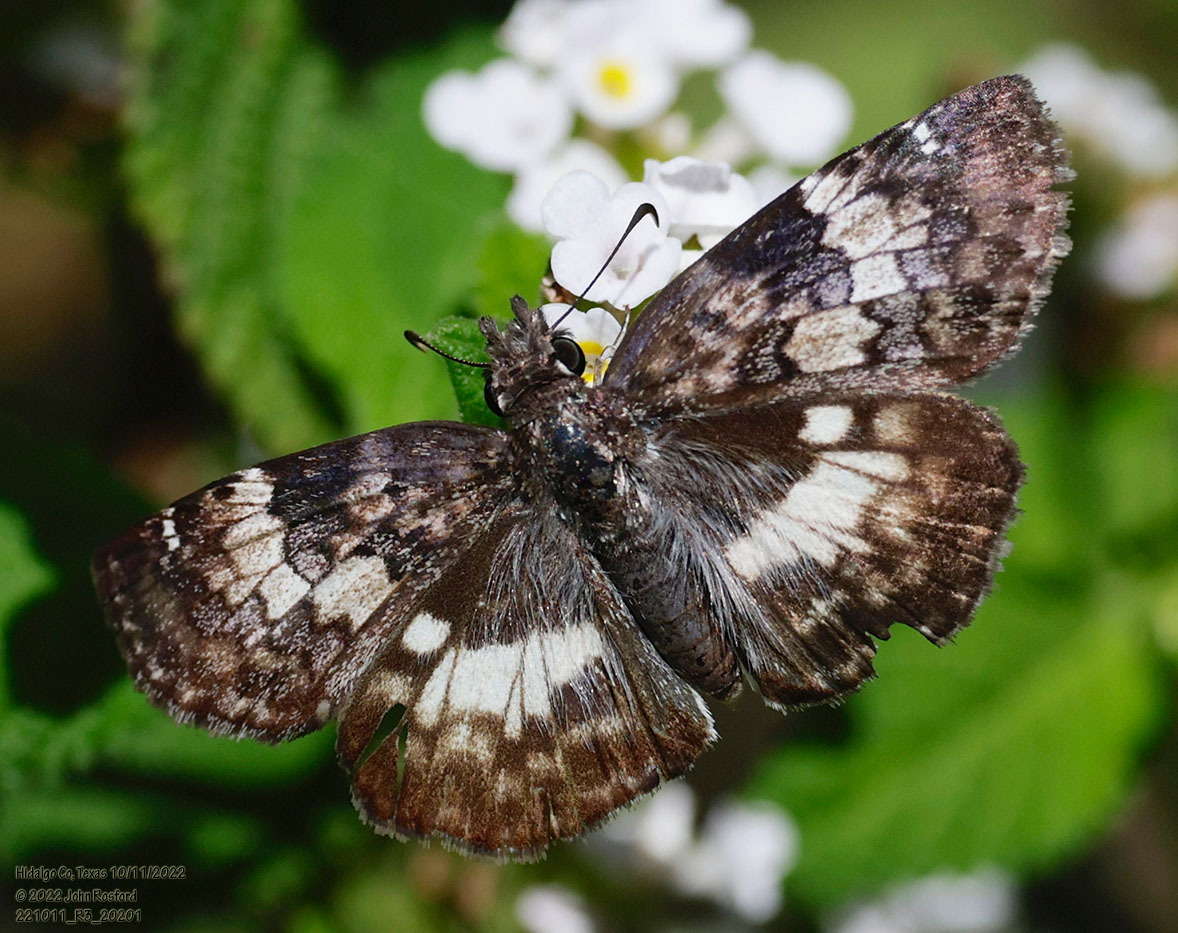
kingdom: Animalia
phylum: Arthropoda
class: Insecta
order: Lepidoptera
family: Hesperiidae
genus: Chiothion
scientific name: Chiothion georgina
